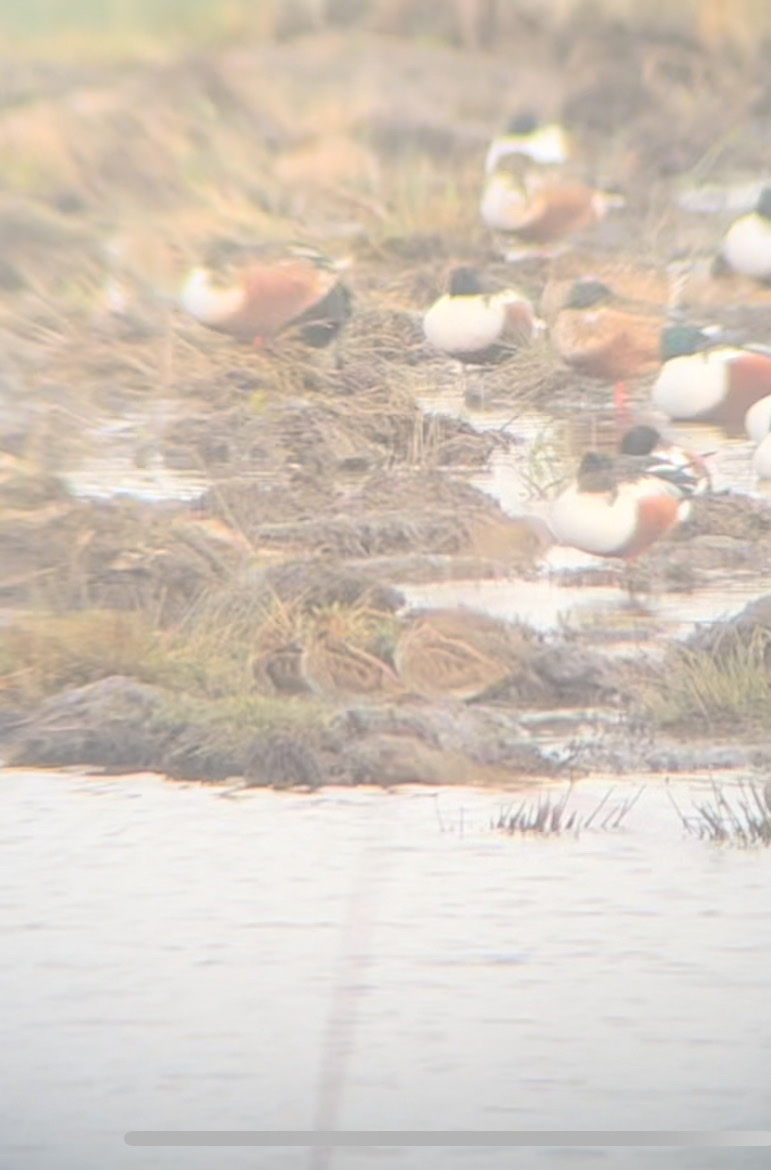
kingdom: Animalia
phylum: Chordata
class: Aves
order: Charadriiformes
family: Scolopacidae
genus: Gallinago
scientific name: Gallinago gallinago
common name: Common snipe
